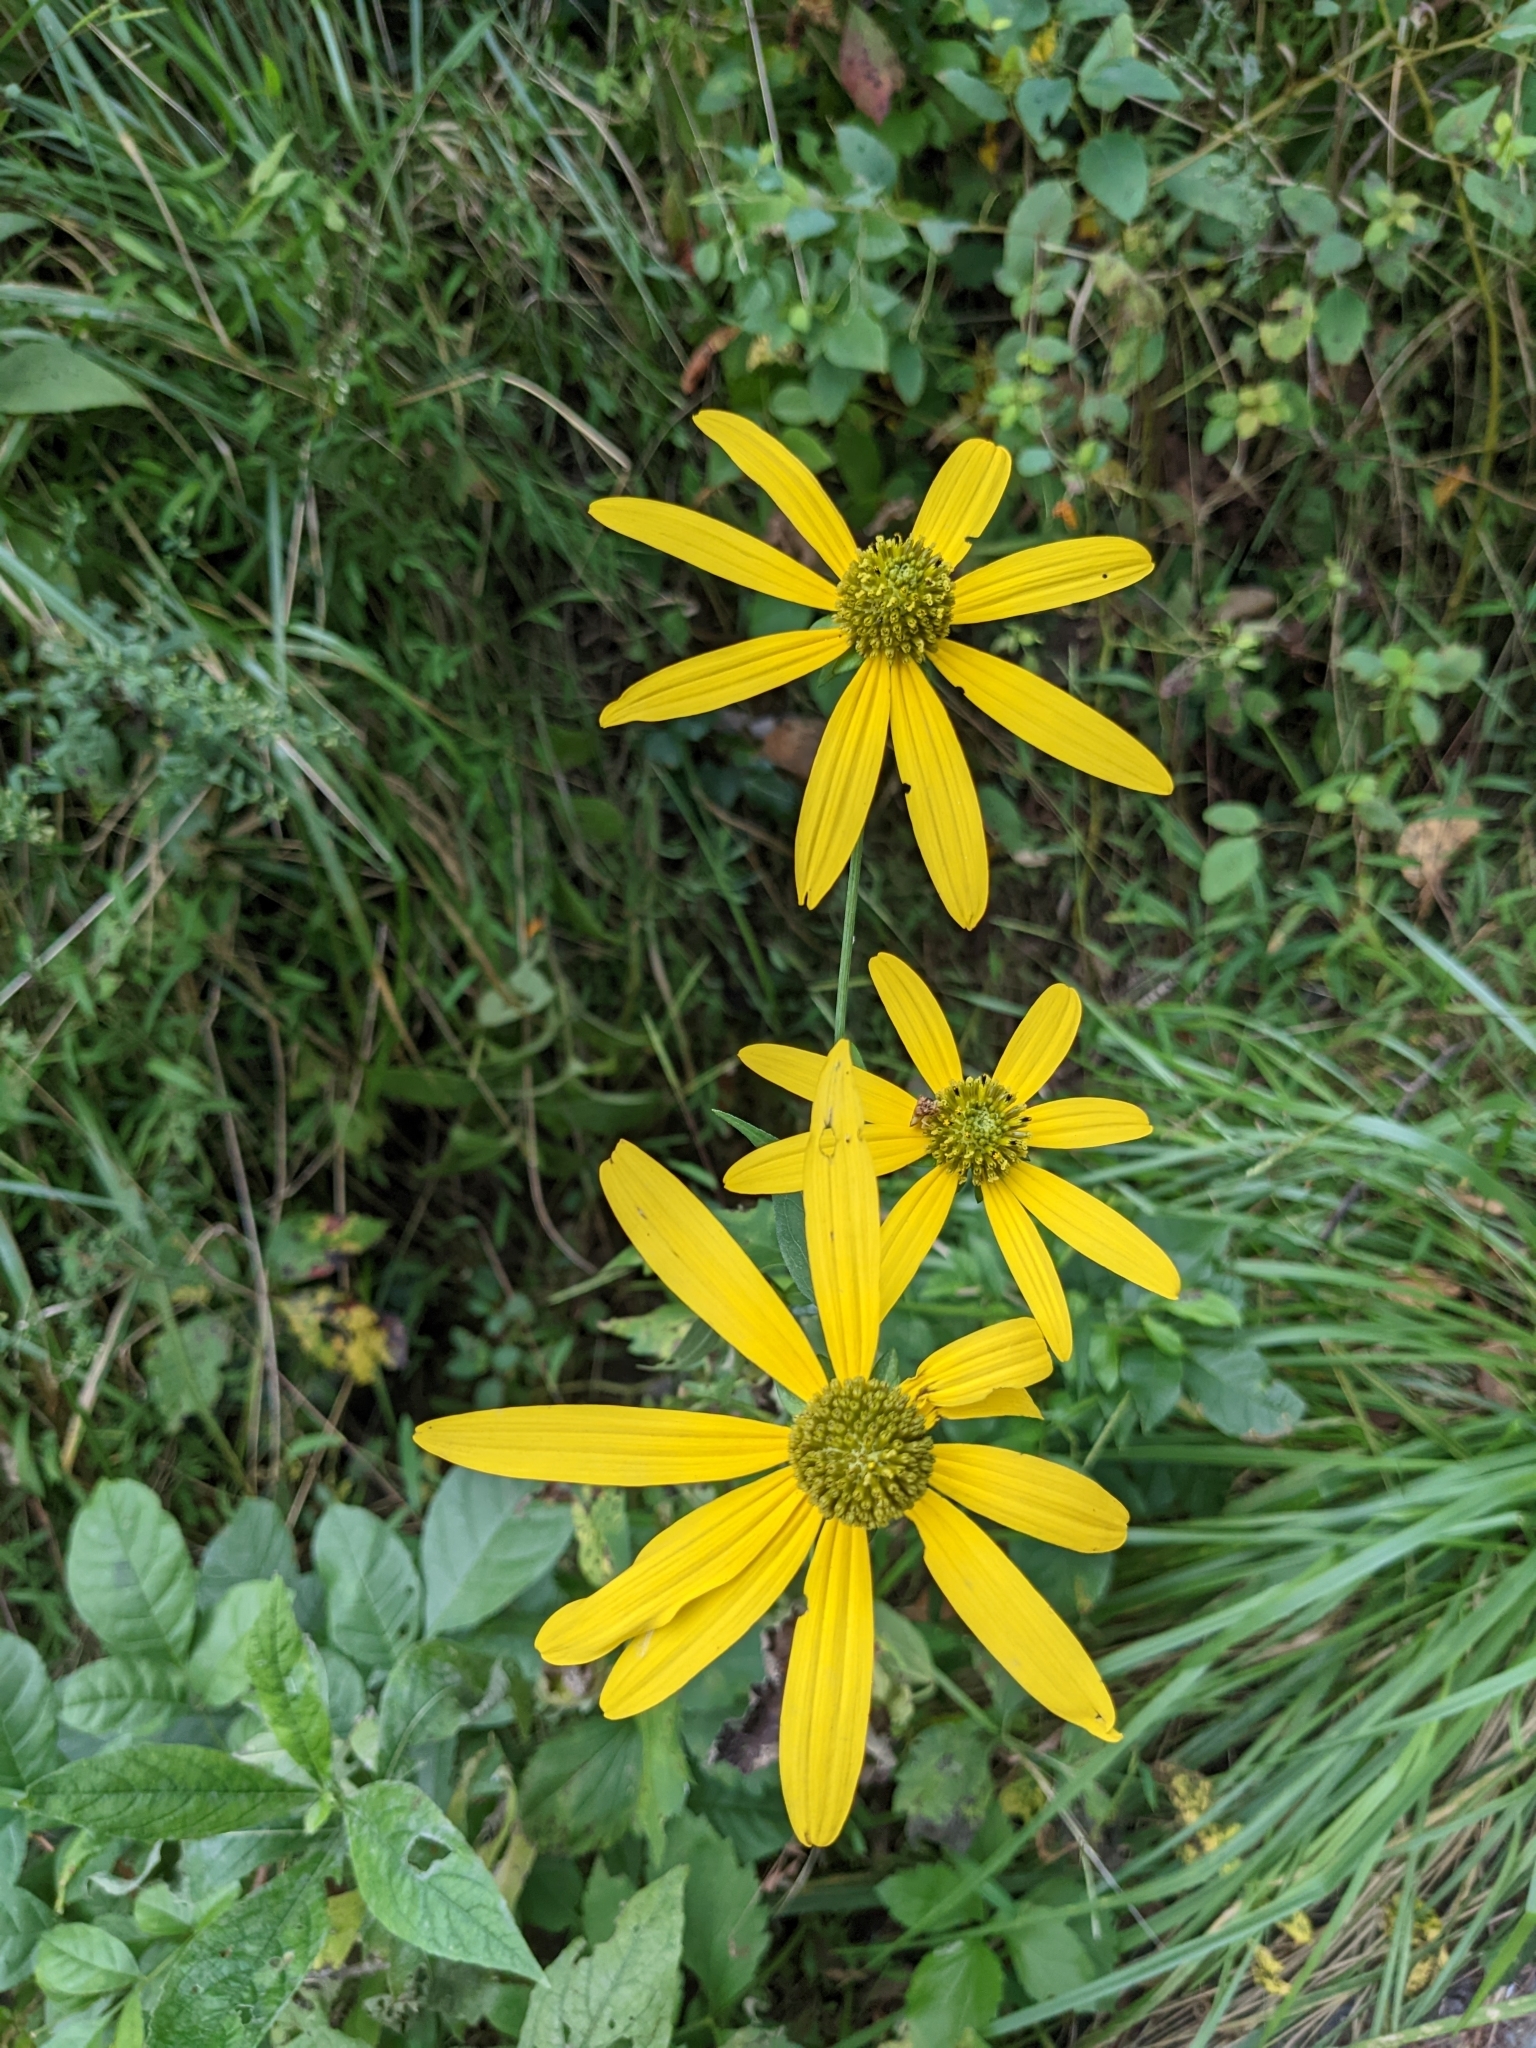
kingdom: Plantae
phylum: Tracheophyta
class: Magnoliopsida
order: Asterales
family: Asteraceae
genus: Rudbeckia
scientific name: Rudbeckia laciniata
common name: Coneflower
